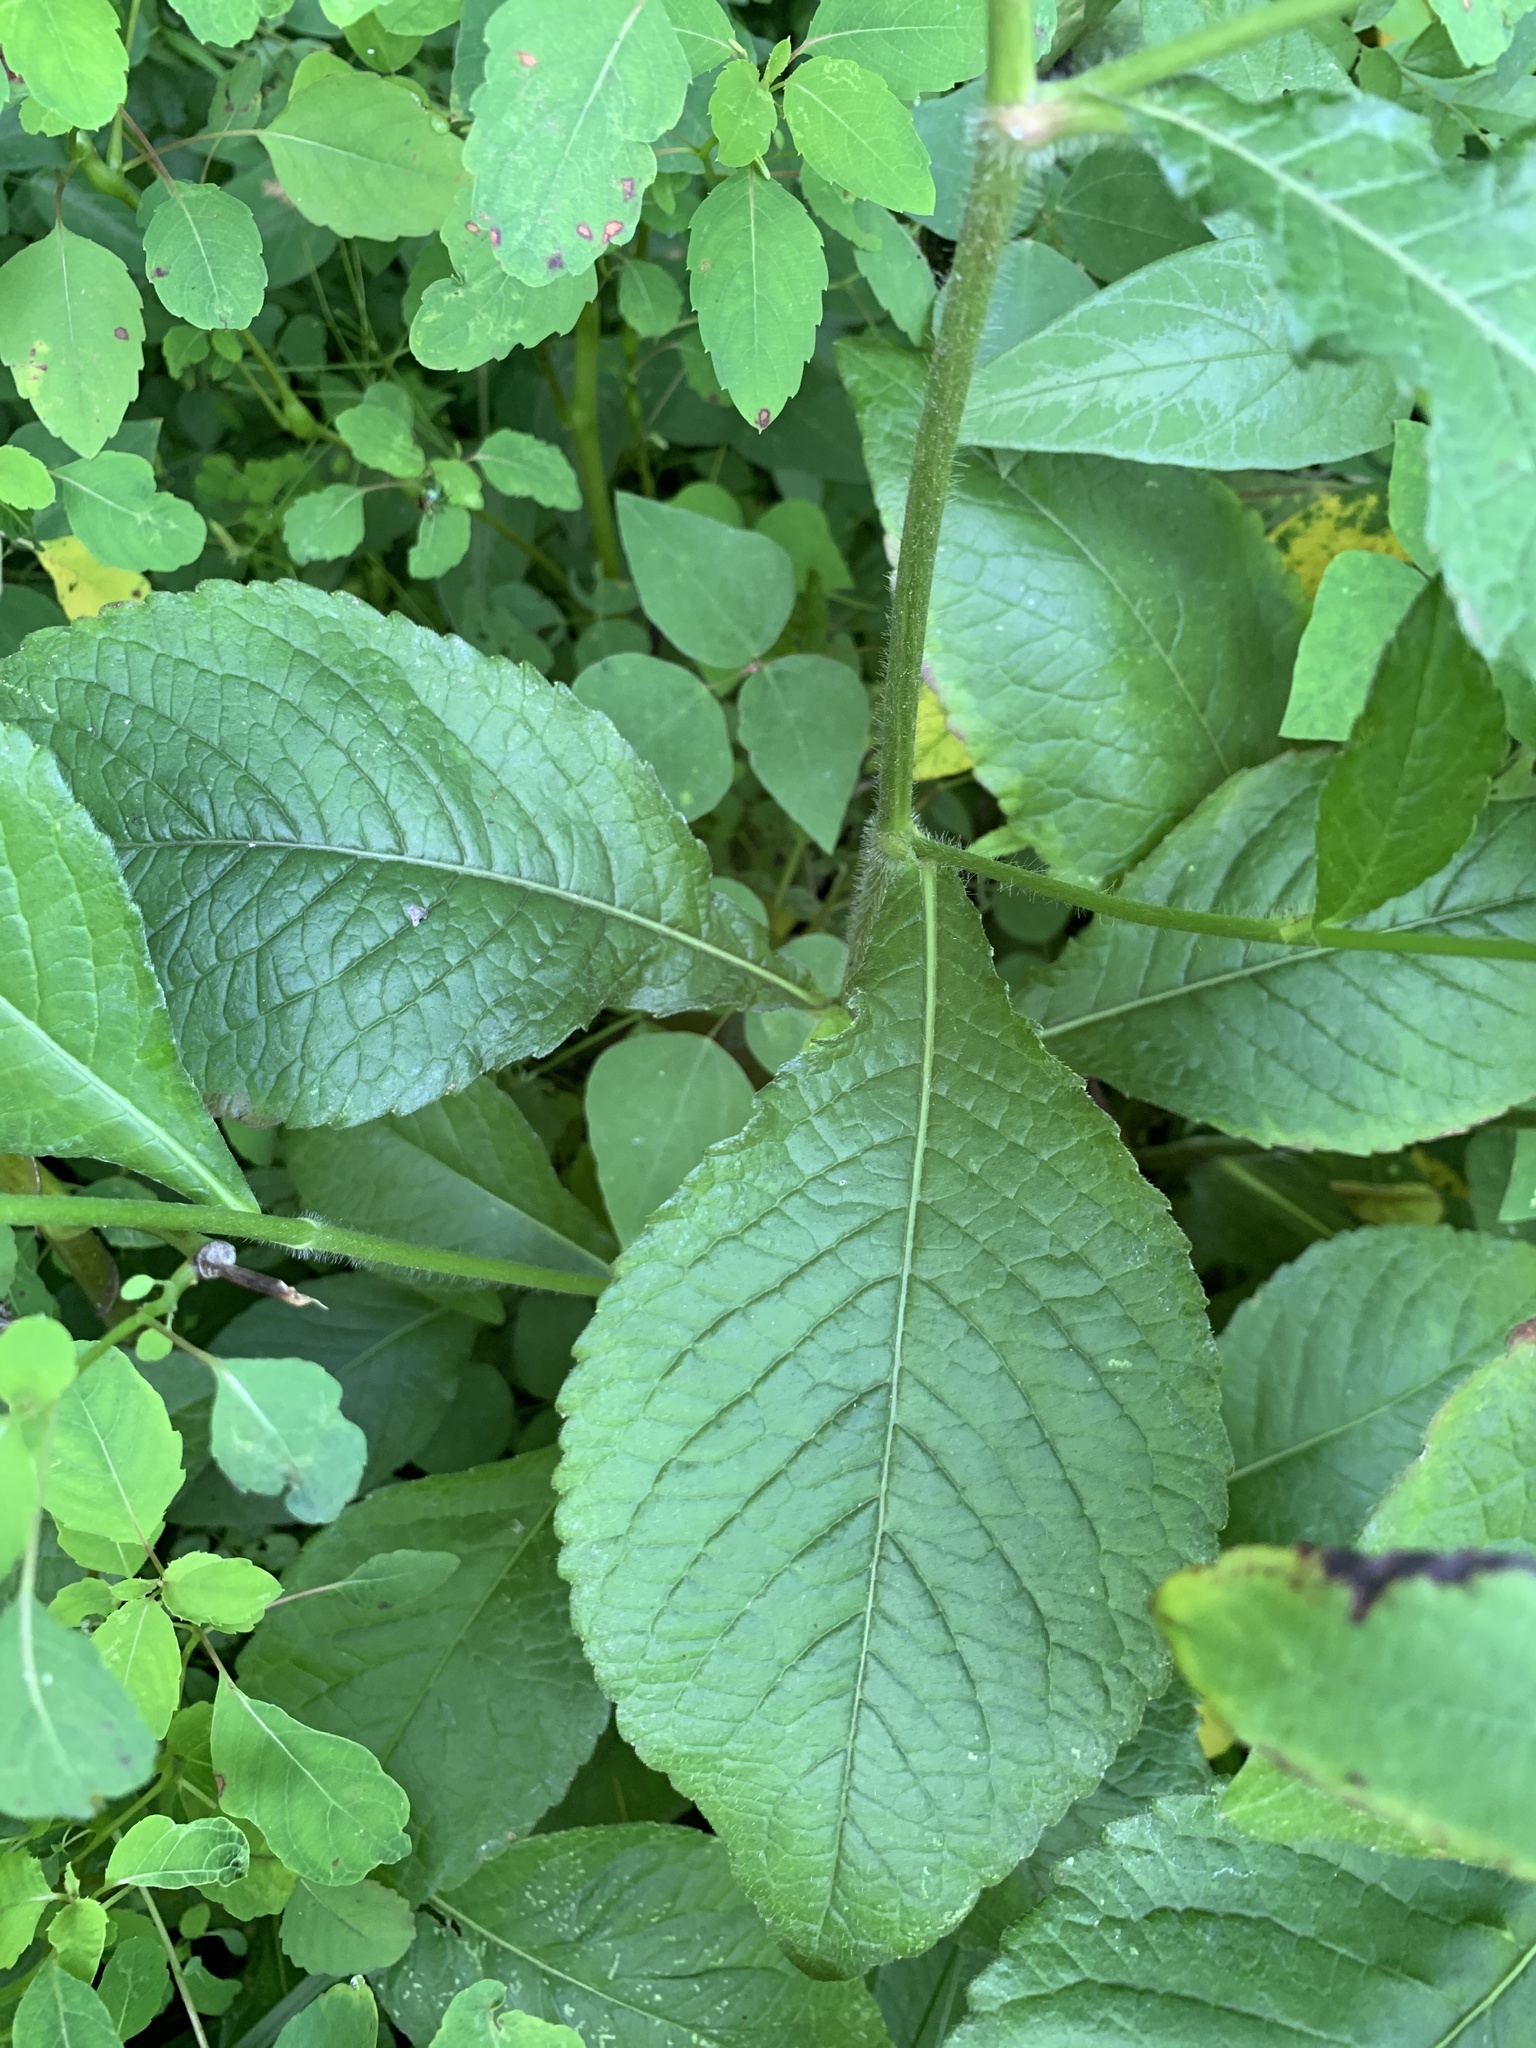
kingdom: Plantae
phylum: Tracheophyta
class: Magnoliopsida
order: Asterales
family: Asteraceae
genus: Elephantopus
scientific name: Elephantopus carolinianus
